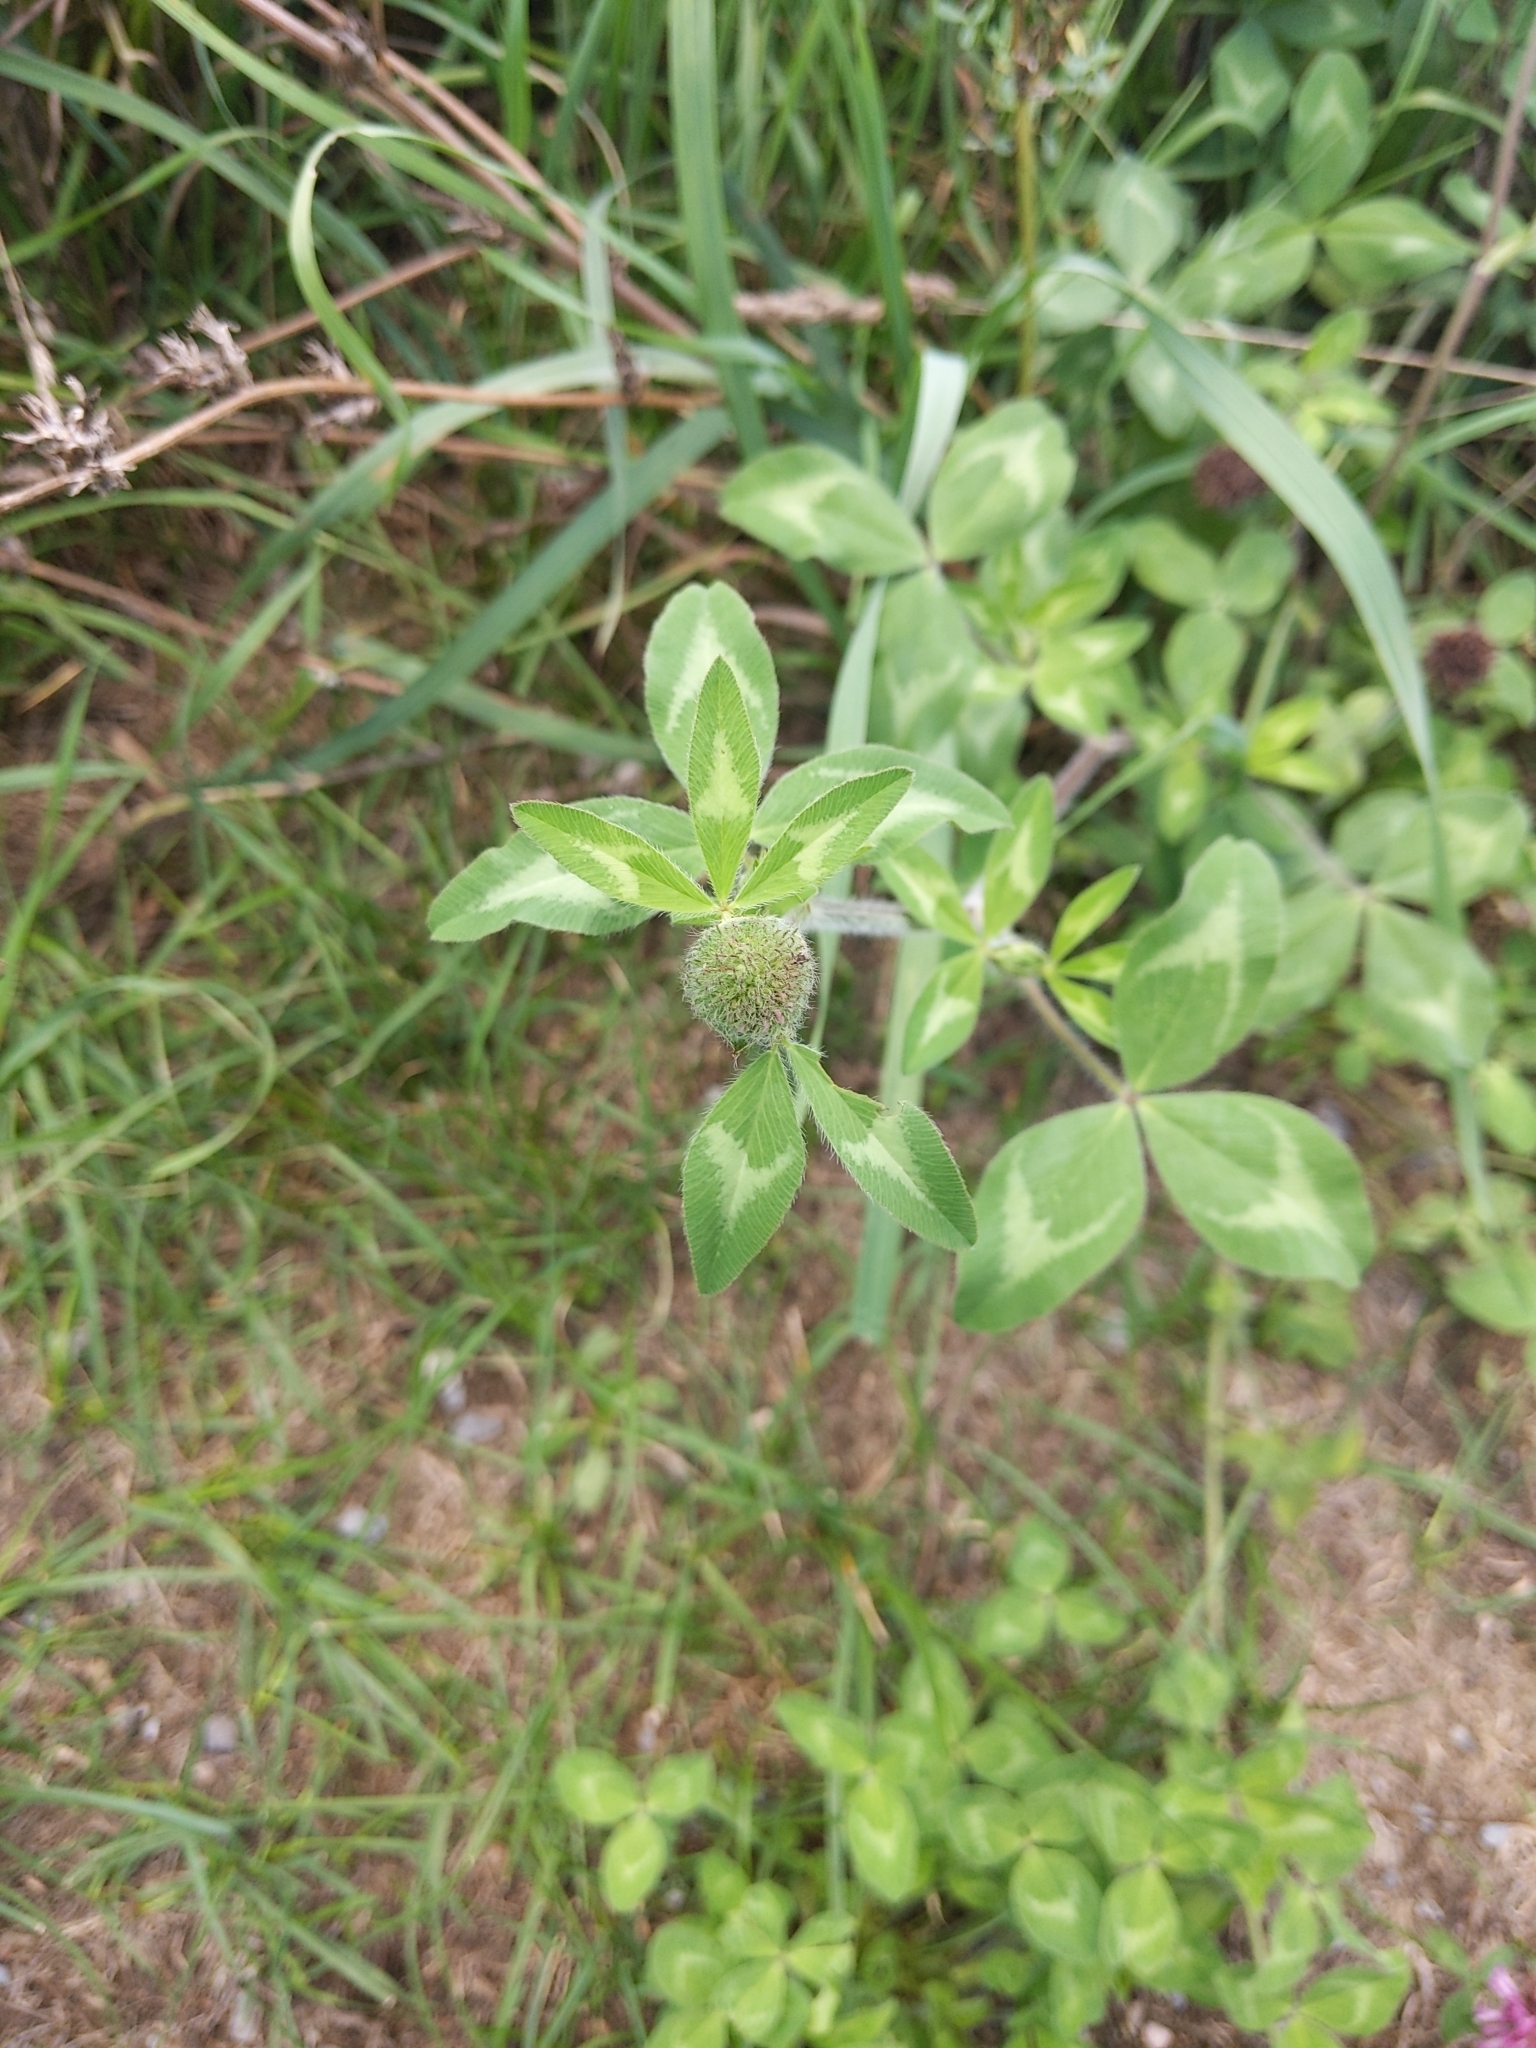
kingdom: Plantae
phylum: Tracheophyta
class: Magnoliopsida
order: Fabales
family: Fabaceae
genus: Trifolium
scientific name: Trifolium pratense
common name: Red clover
